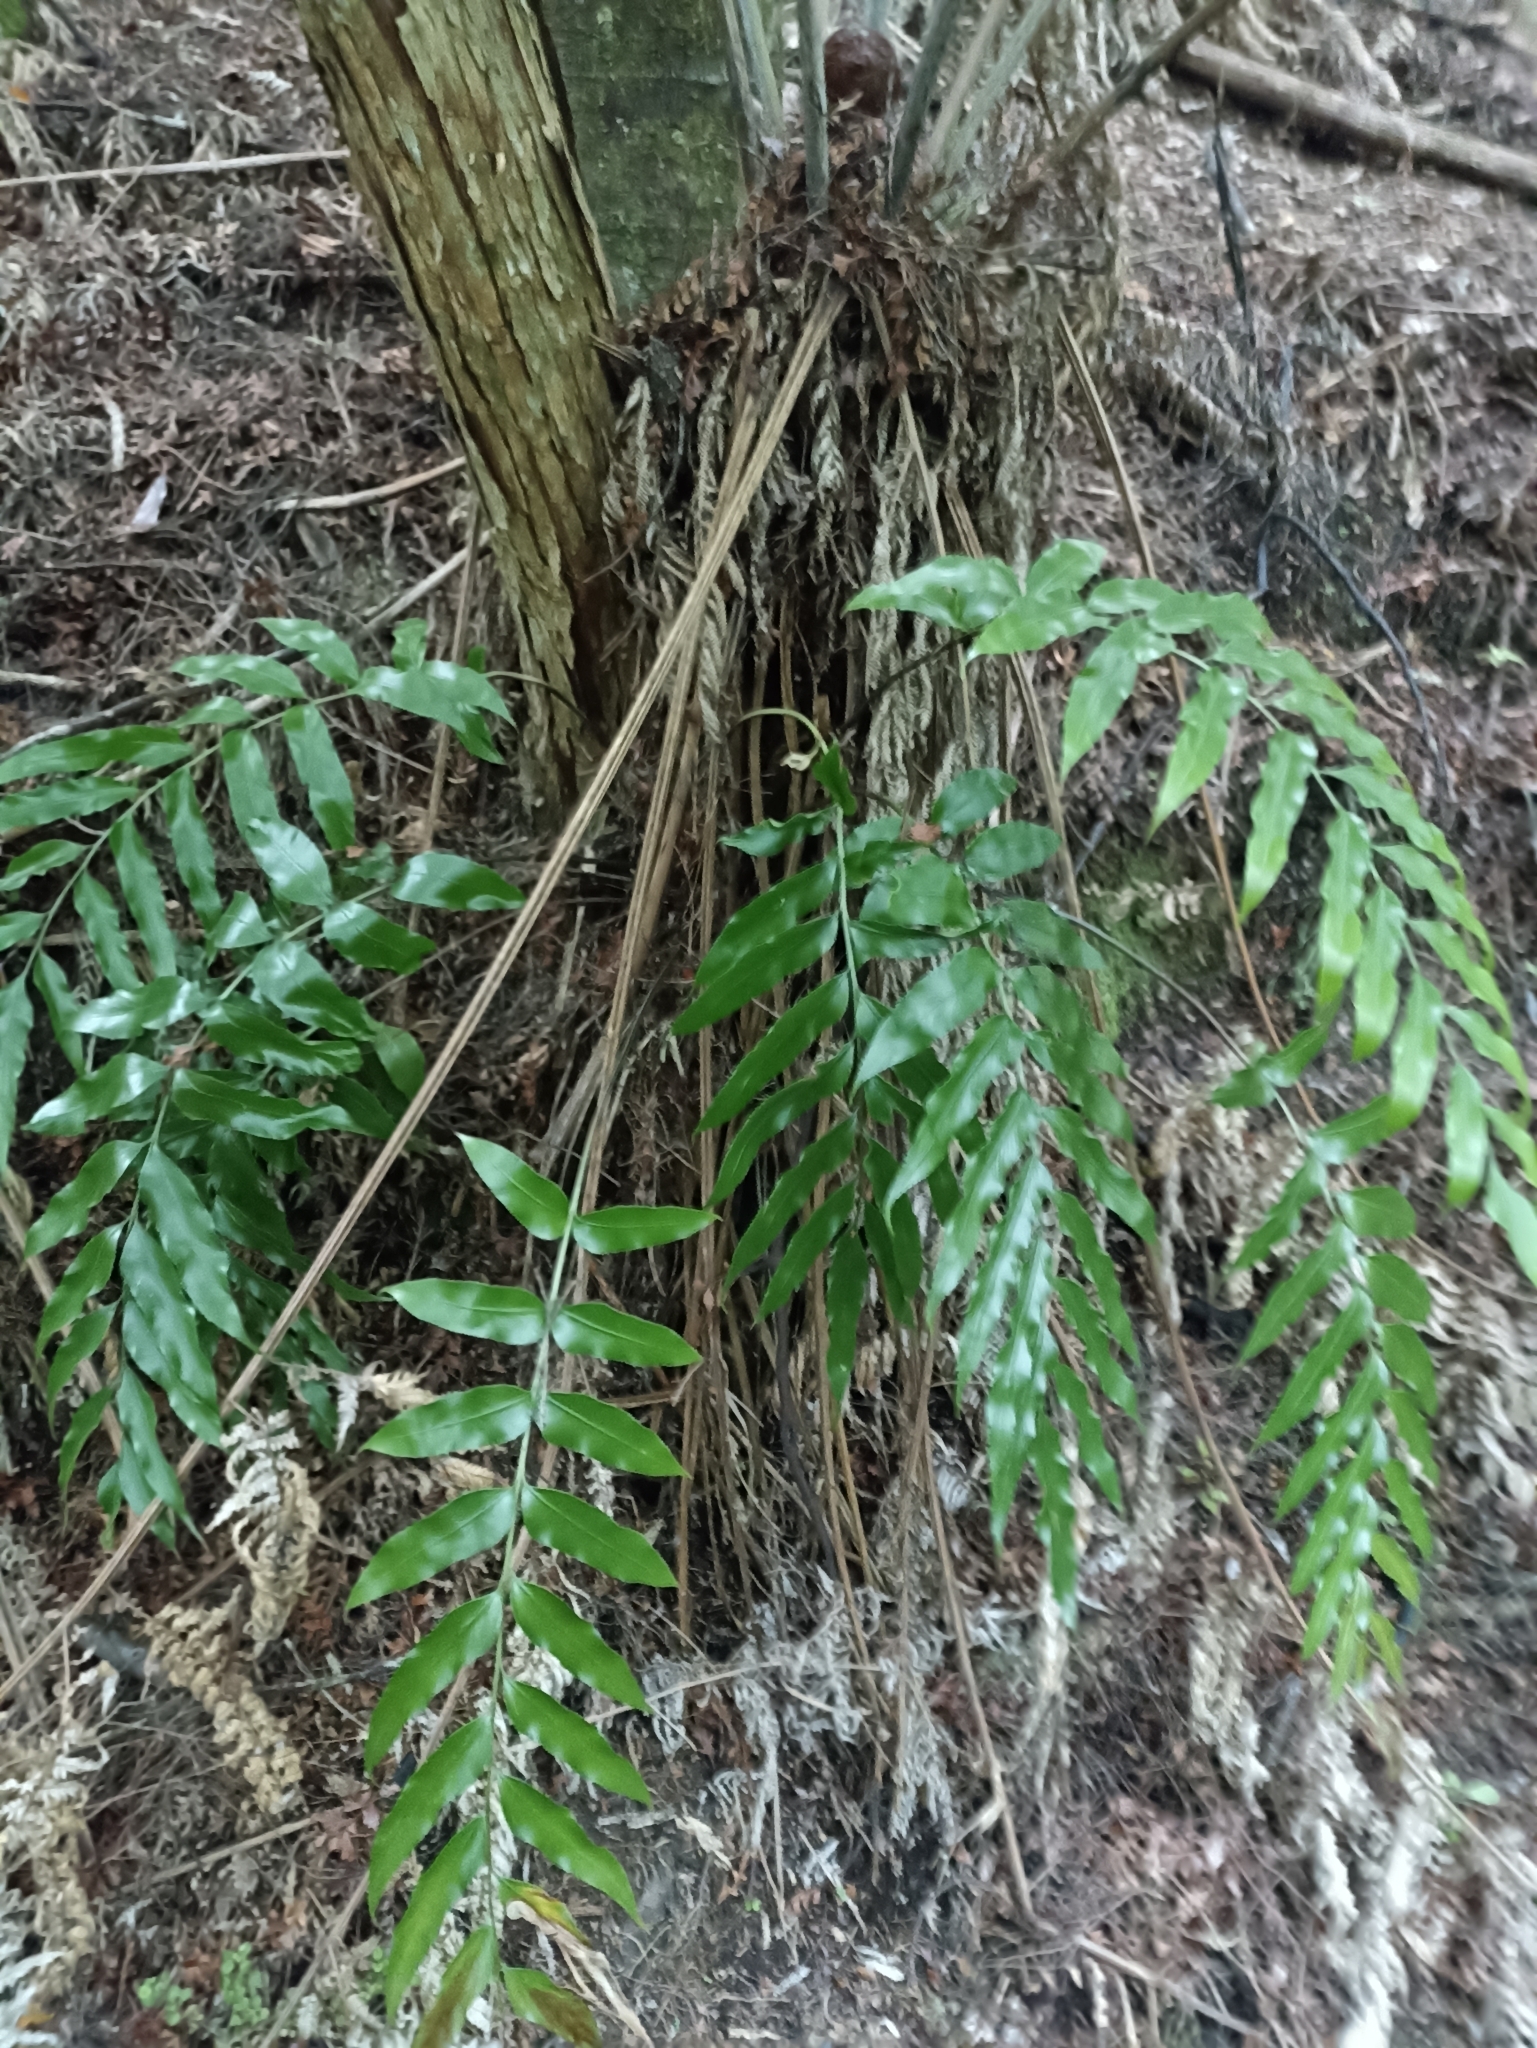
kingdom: Plantae
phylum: Tracheophyta
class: Polypodiopsida
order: Polypodiales
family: Aspleniaceae
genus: Asplenium
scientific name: Asplenium oblongifolium
